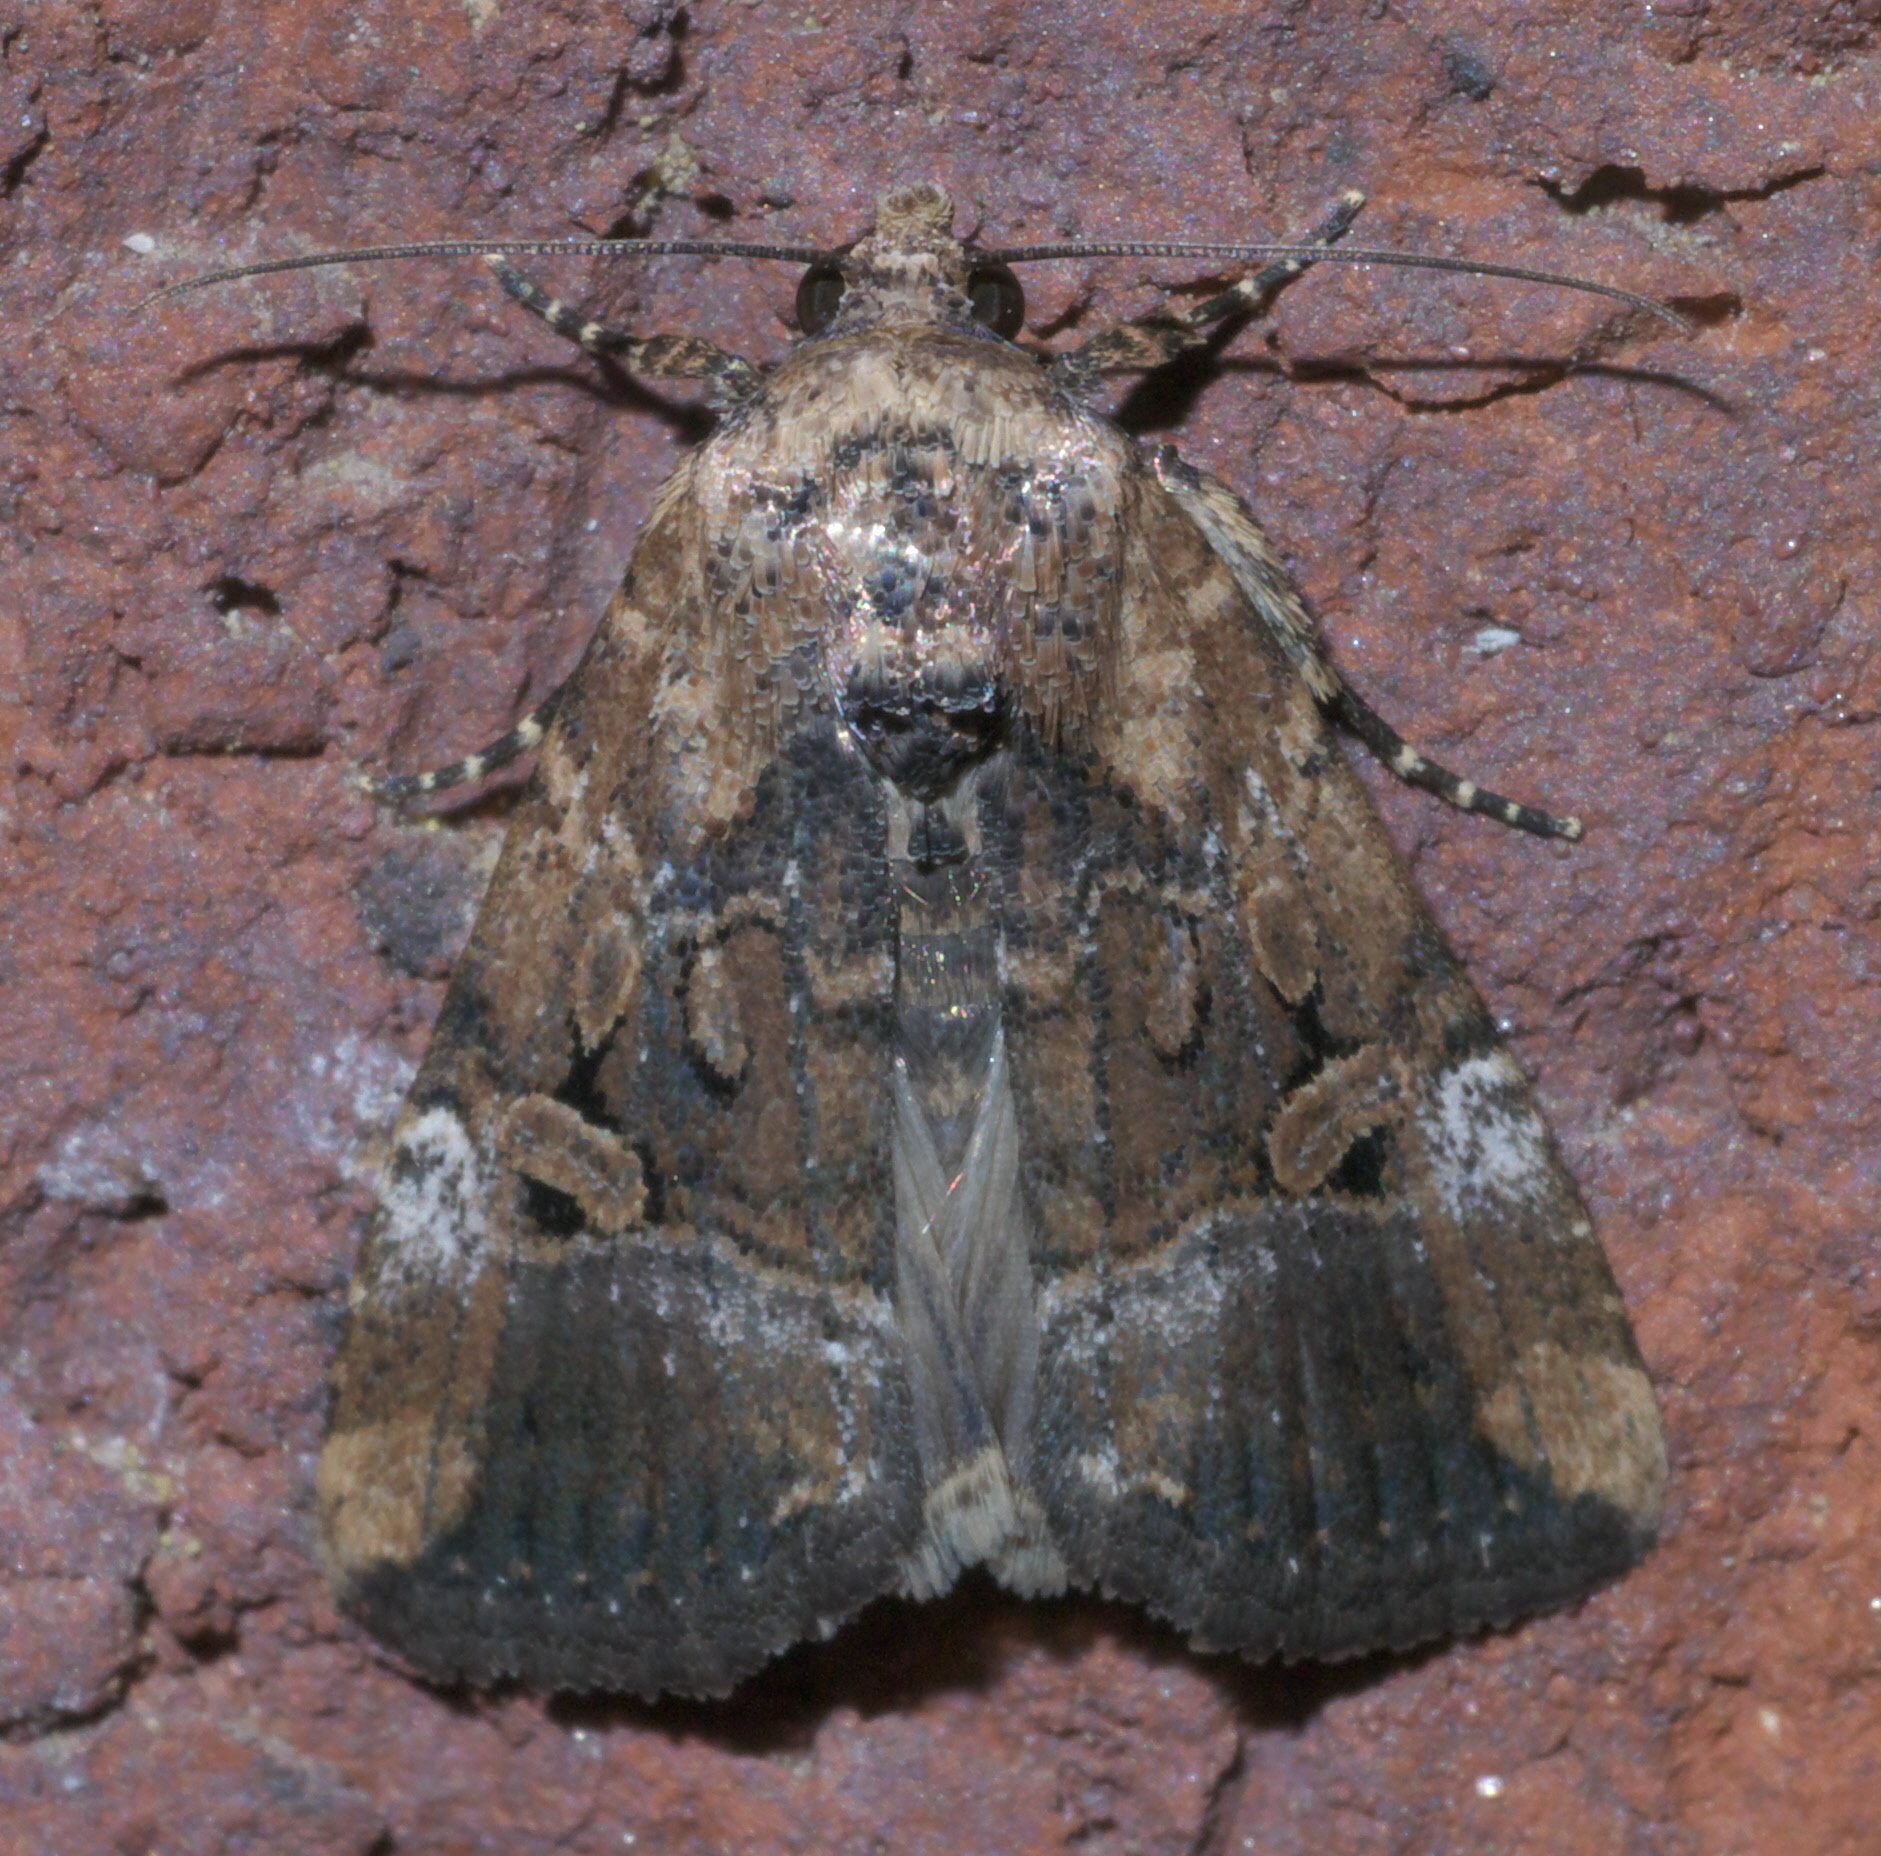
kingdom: Animalia
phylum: Arthropoda
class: Insecta
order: Lepidoptera
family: Noctuidae
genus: Elaphria
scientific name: Elaphria chalcedonia
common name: Chalcedony midget
